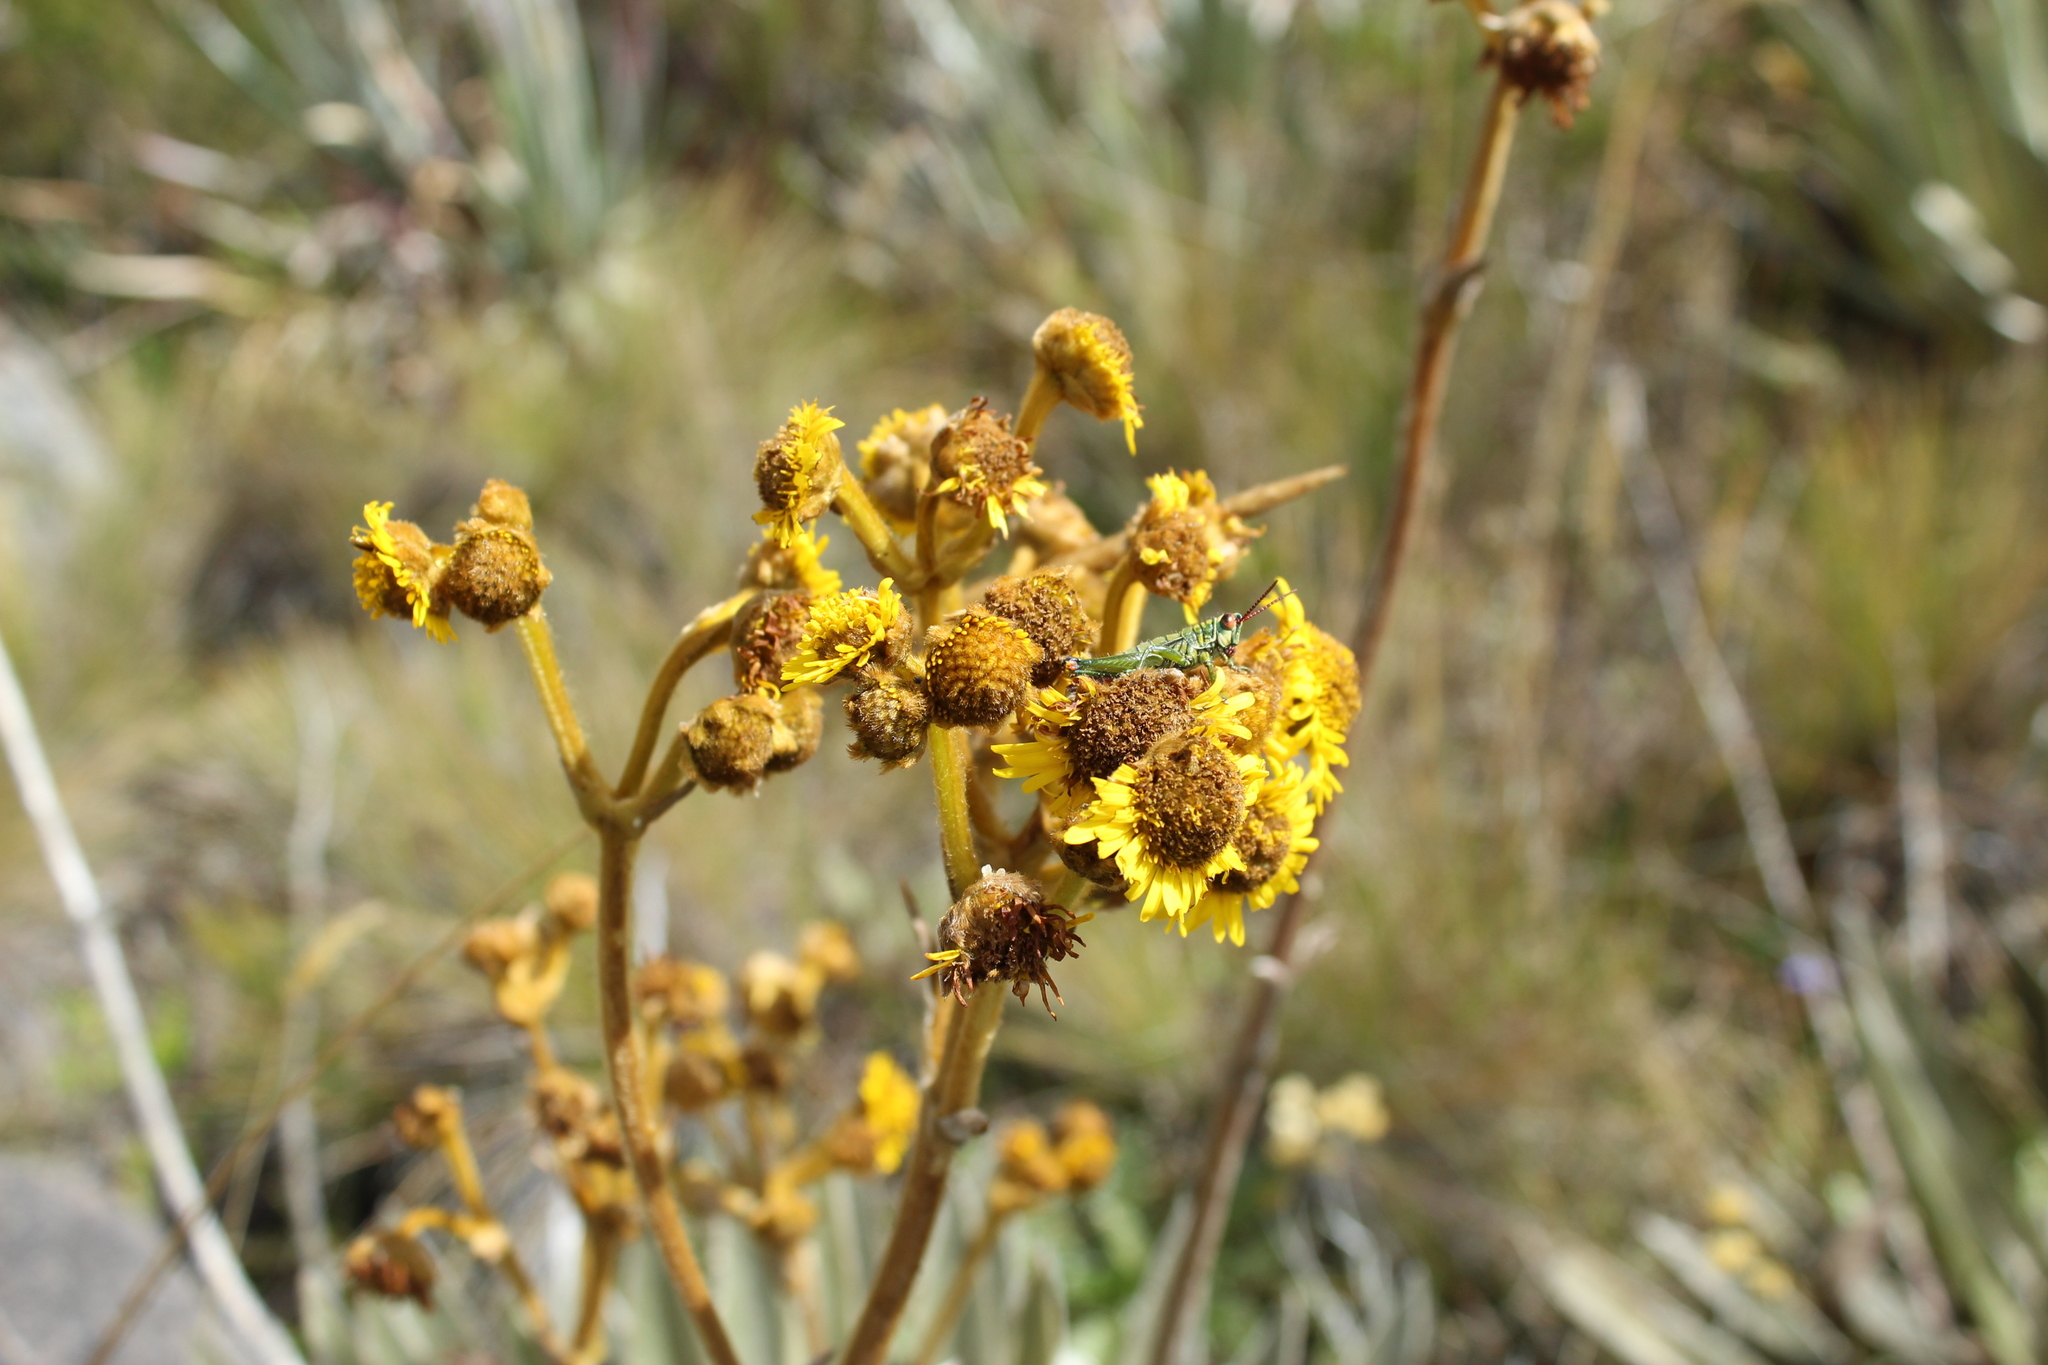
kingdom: Plantae
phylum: Tracheophyta
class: Magnoliopsida
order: Asterales
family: Asteraceae
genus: Espeletia
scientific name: Espeletia boyacensis
